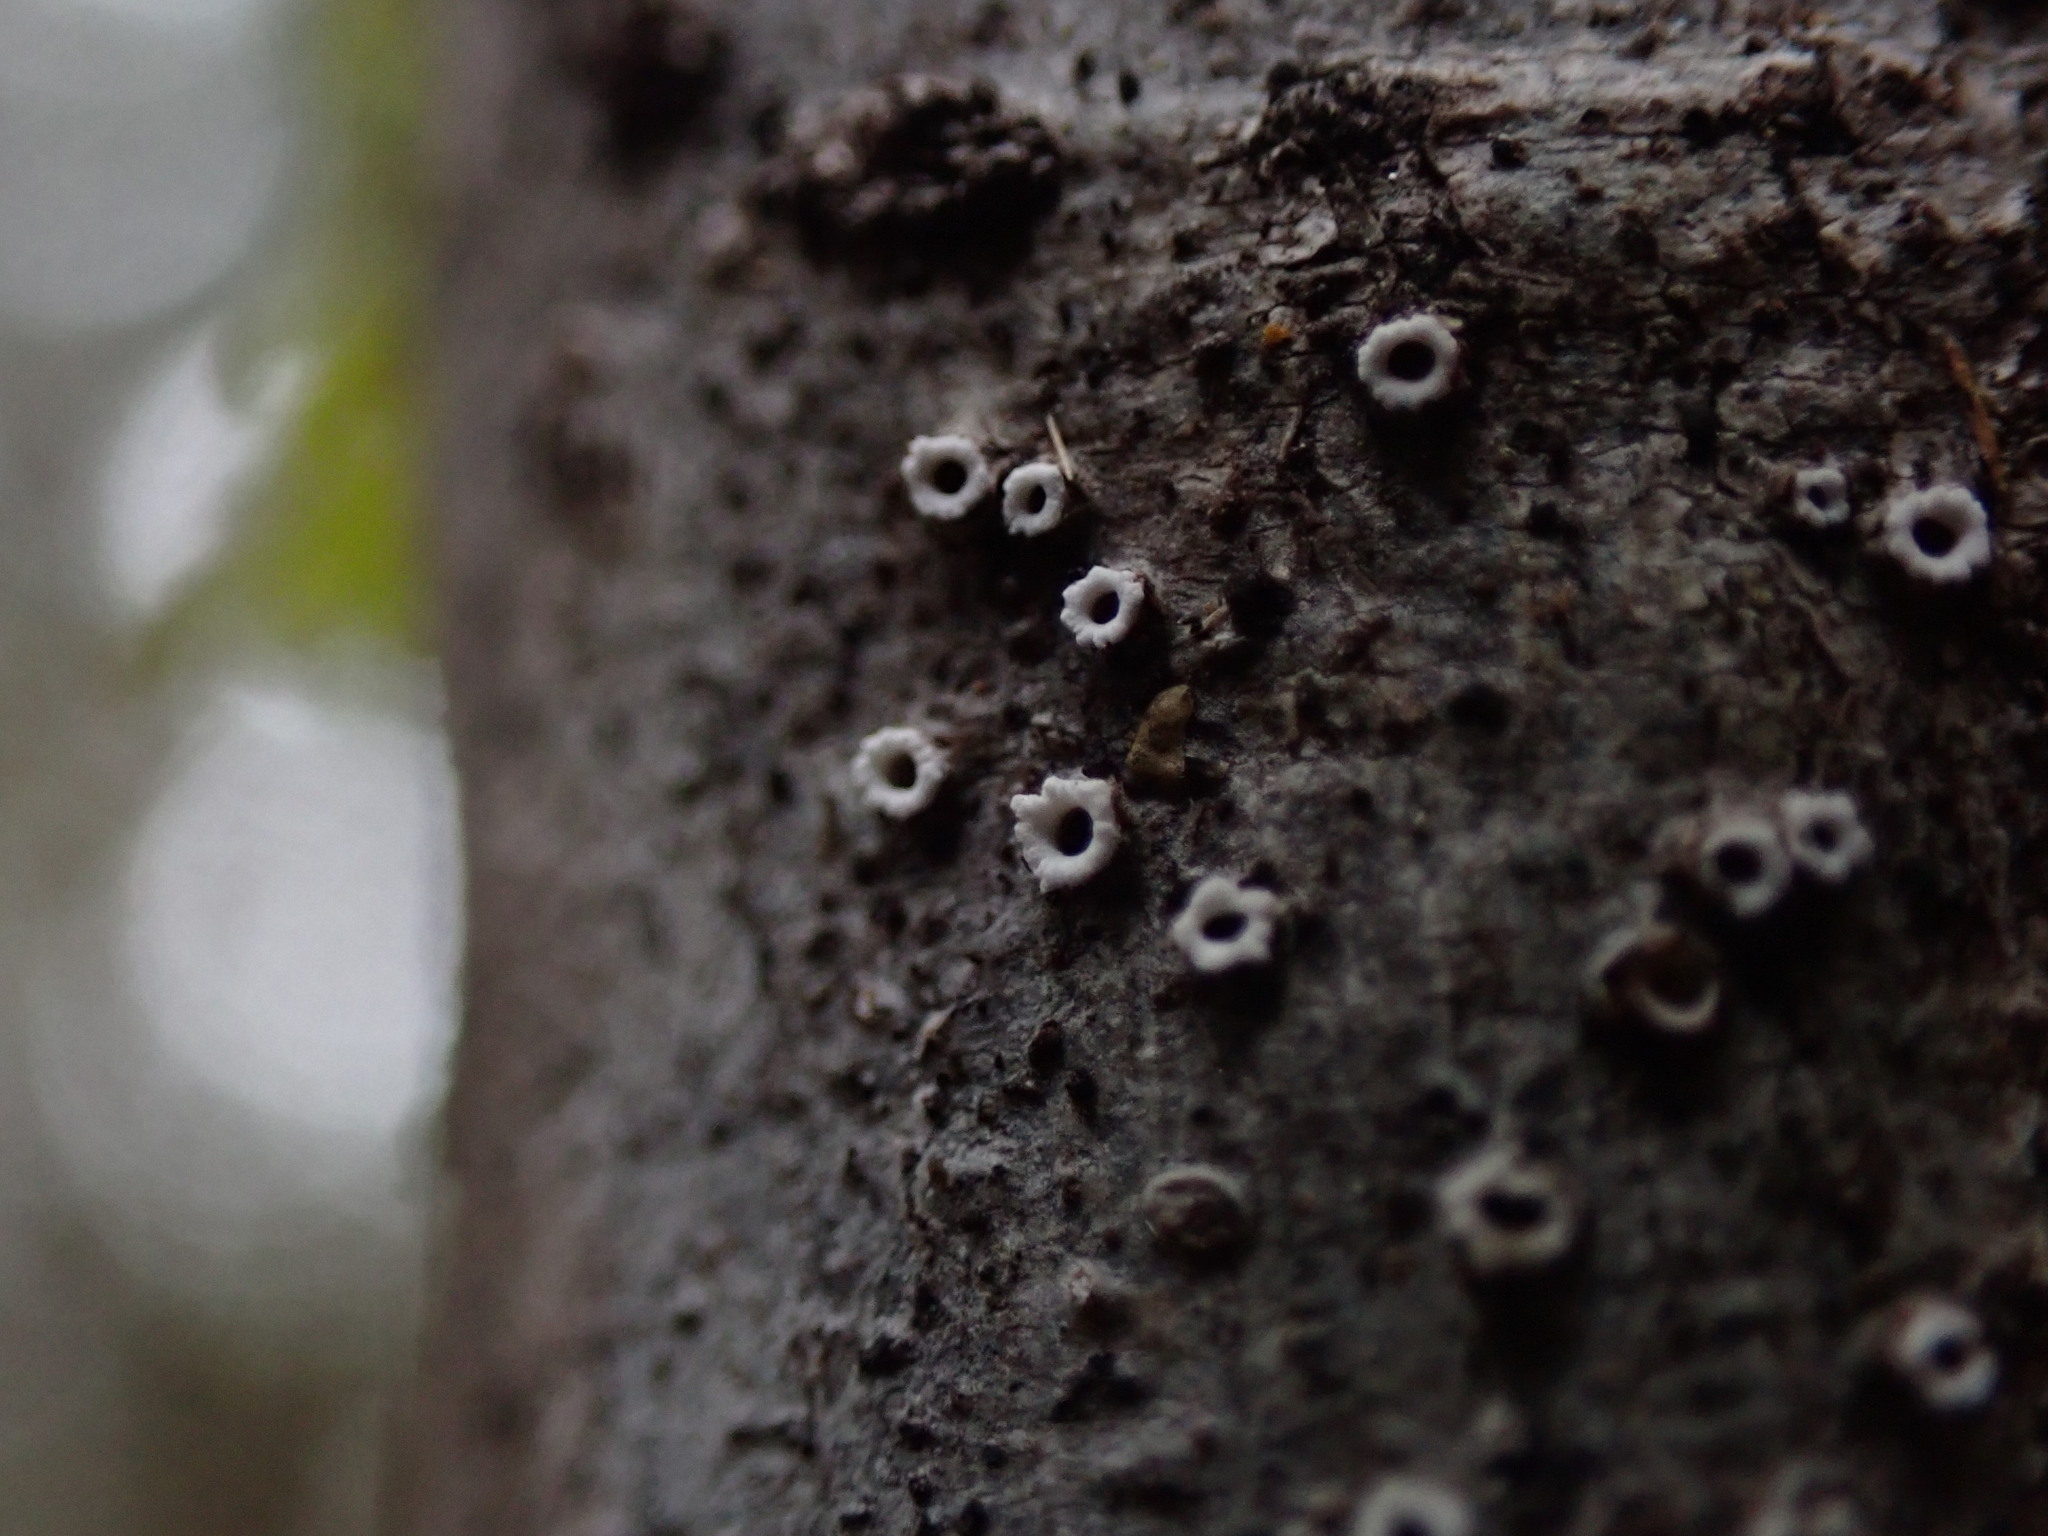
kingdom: Fungi
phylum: Ascomycota
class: Lecanoromycetes
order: Ostropales
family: Stictidaceae
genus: Stictis
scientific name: Stictis radiata
